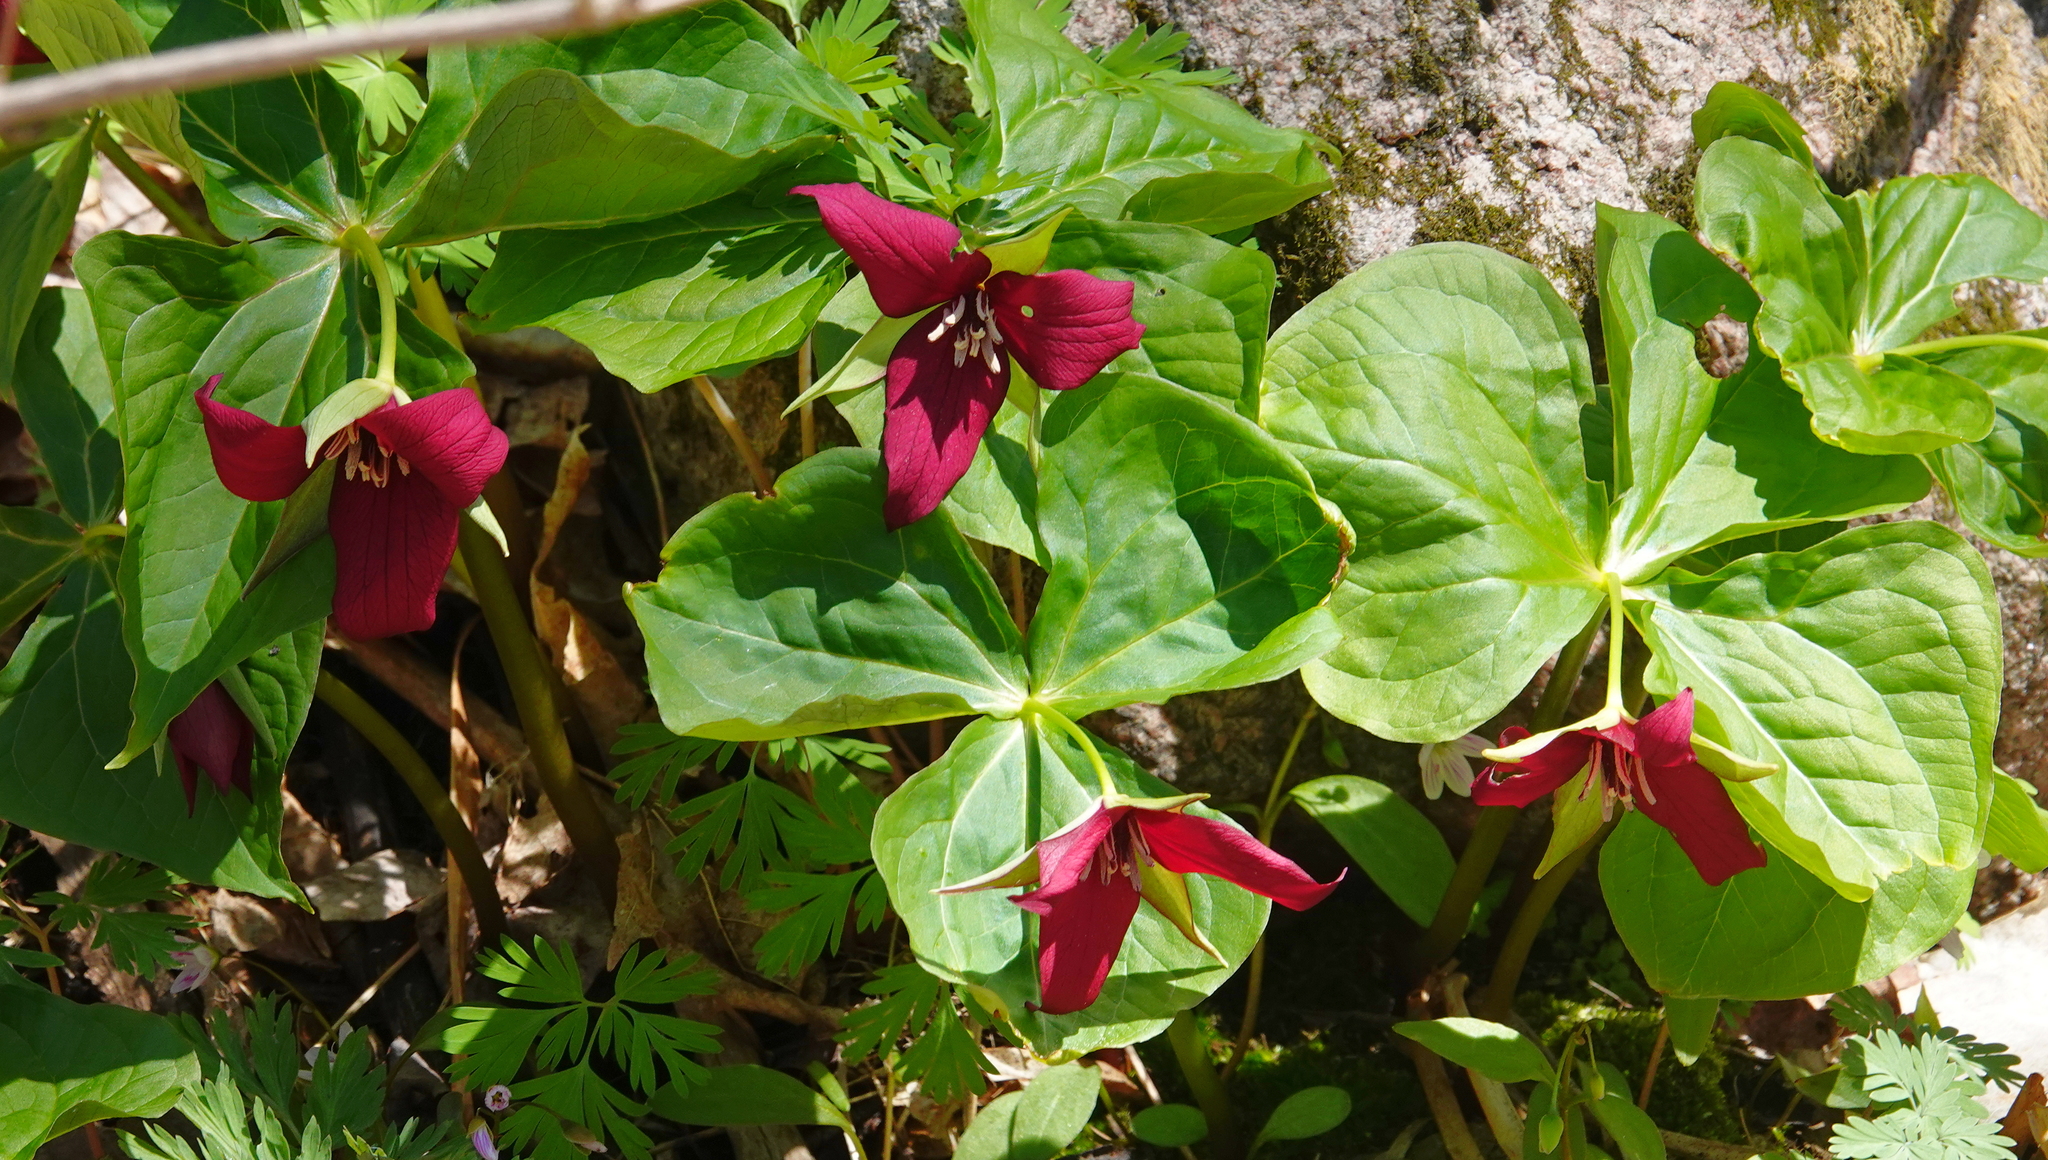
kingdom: Plantae
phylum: Tracheophyta
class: Liliopsida
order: Liliales
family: Melanthiaceae
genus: Trillium
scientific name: Trillium erectum
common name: Purple trillium
